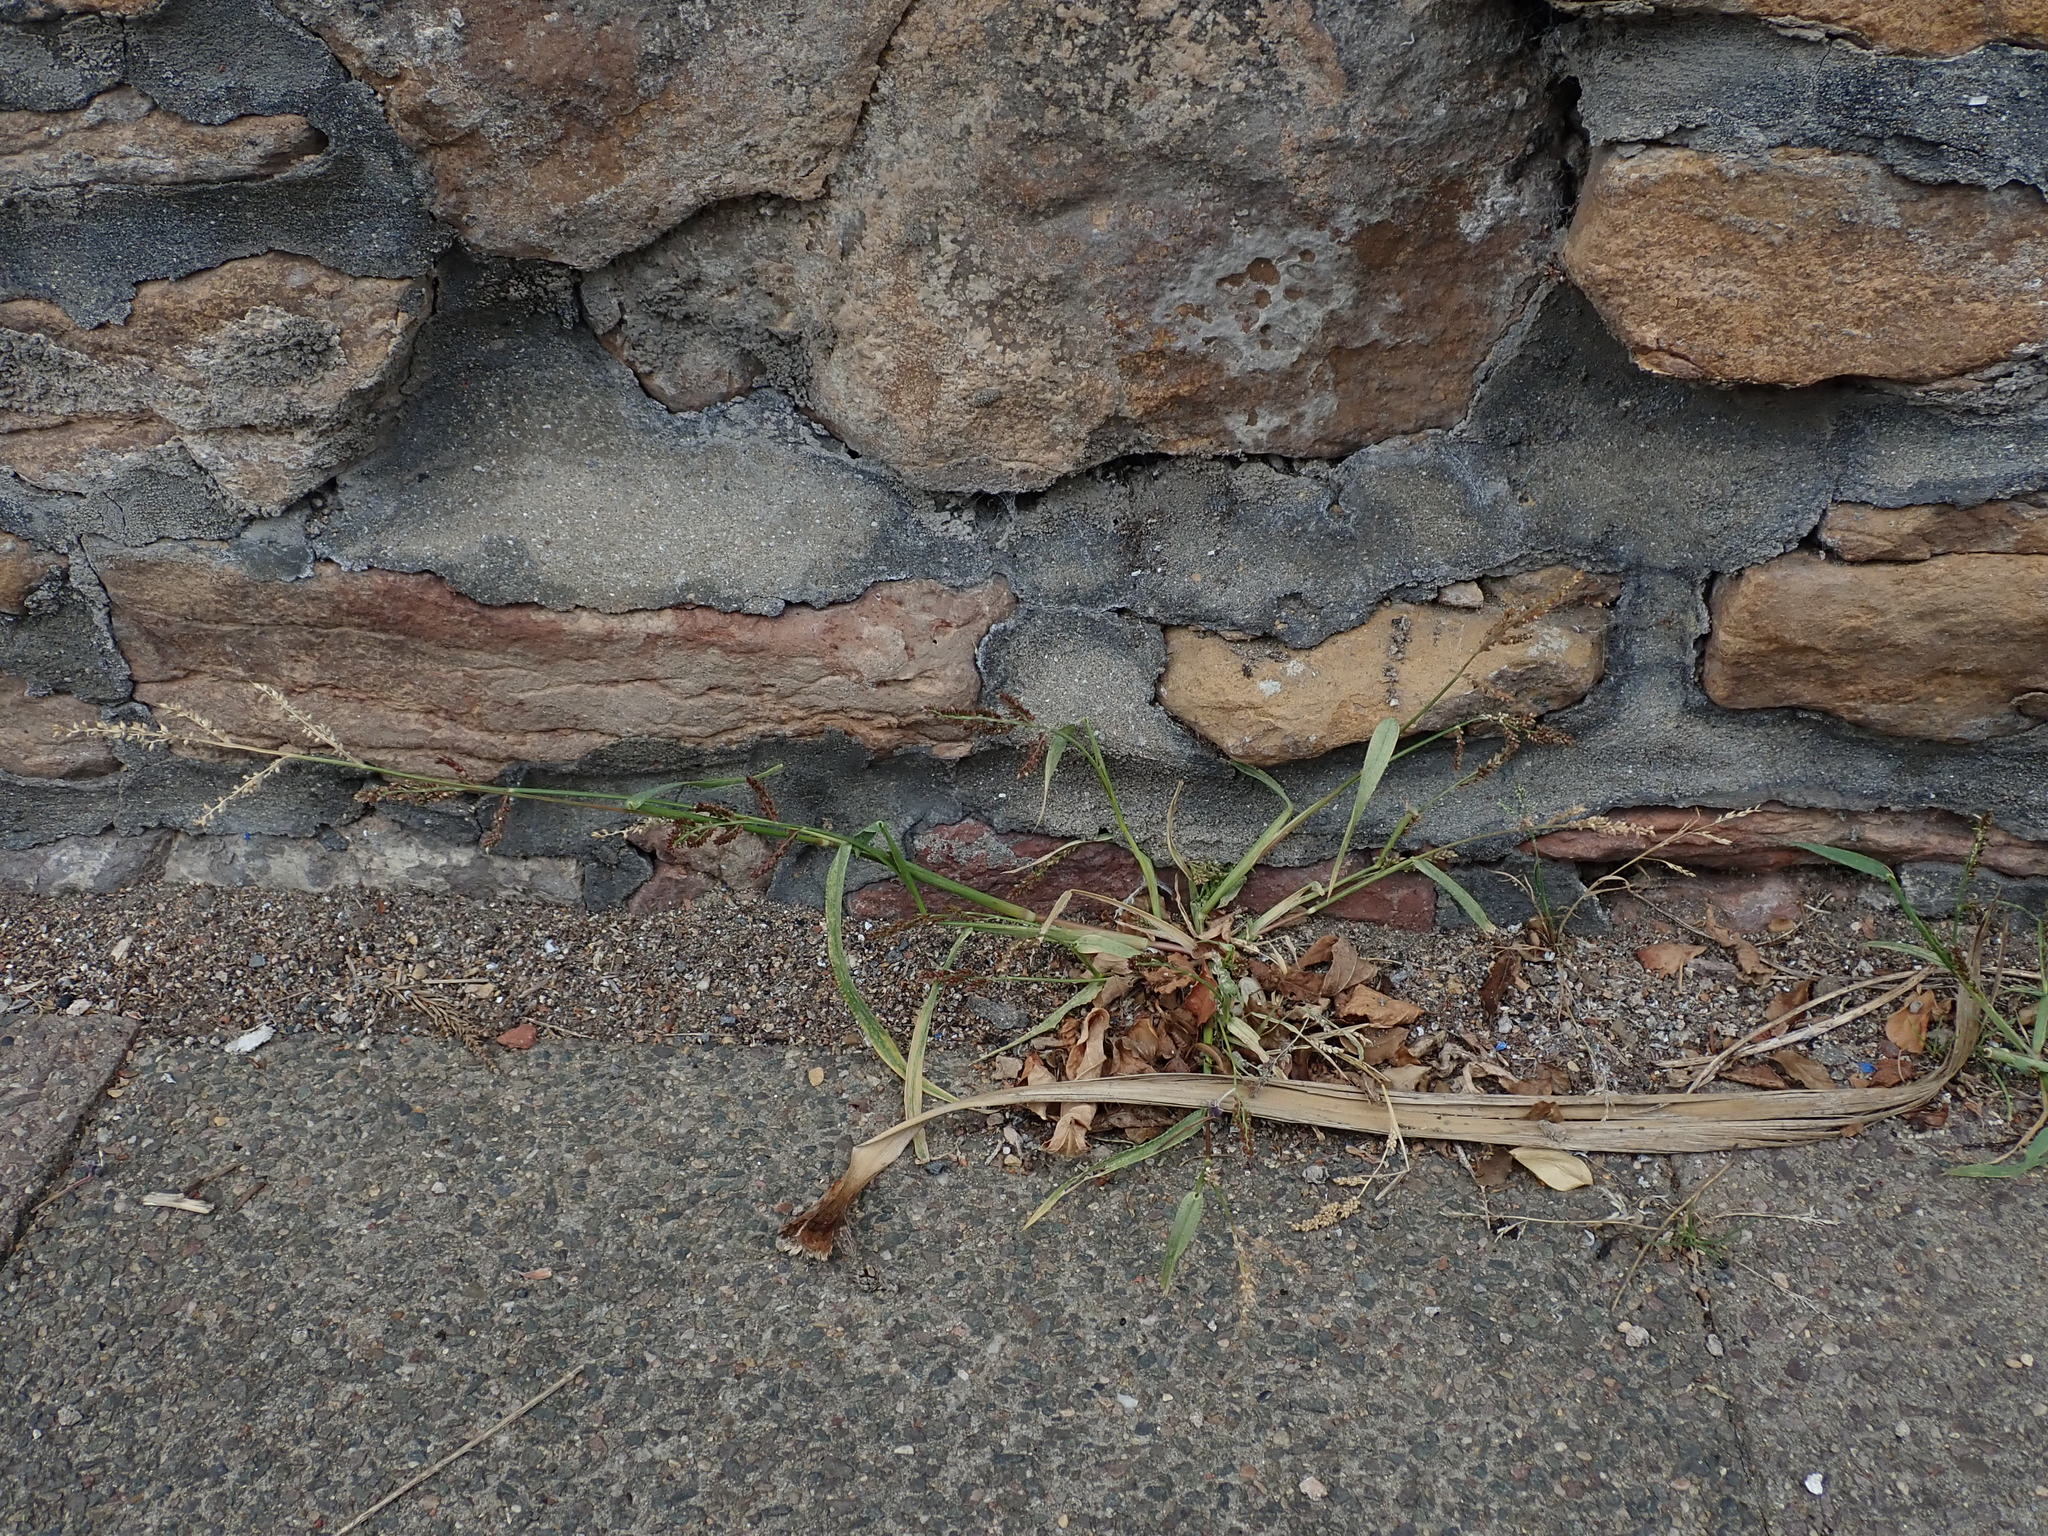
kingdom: Plantae
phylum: Tracheophyta
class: Liliopsida
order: Poales
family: Poaceae
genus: Echinochloa
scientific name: Echinochloa crus-galli
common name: Cockspur
